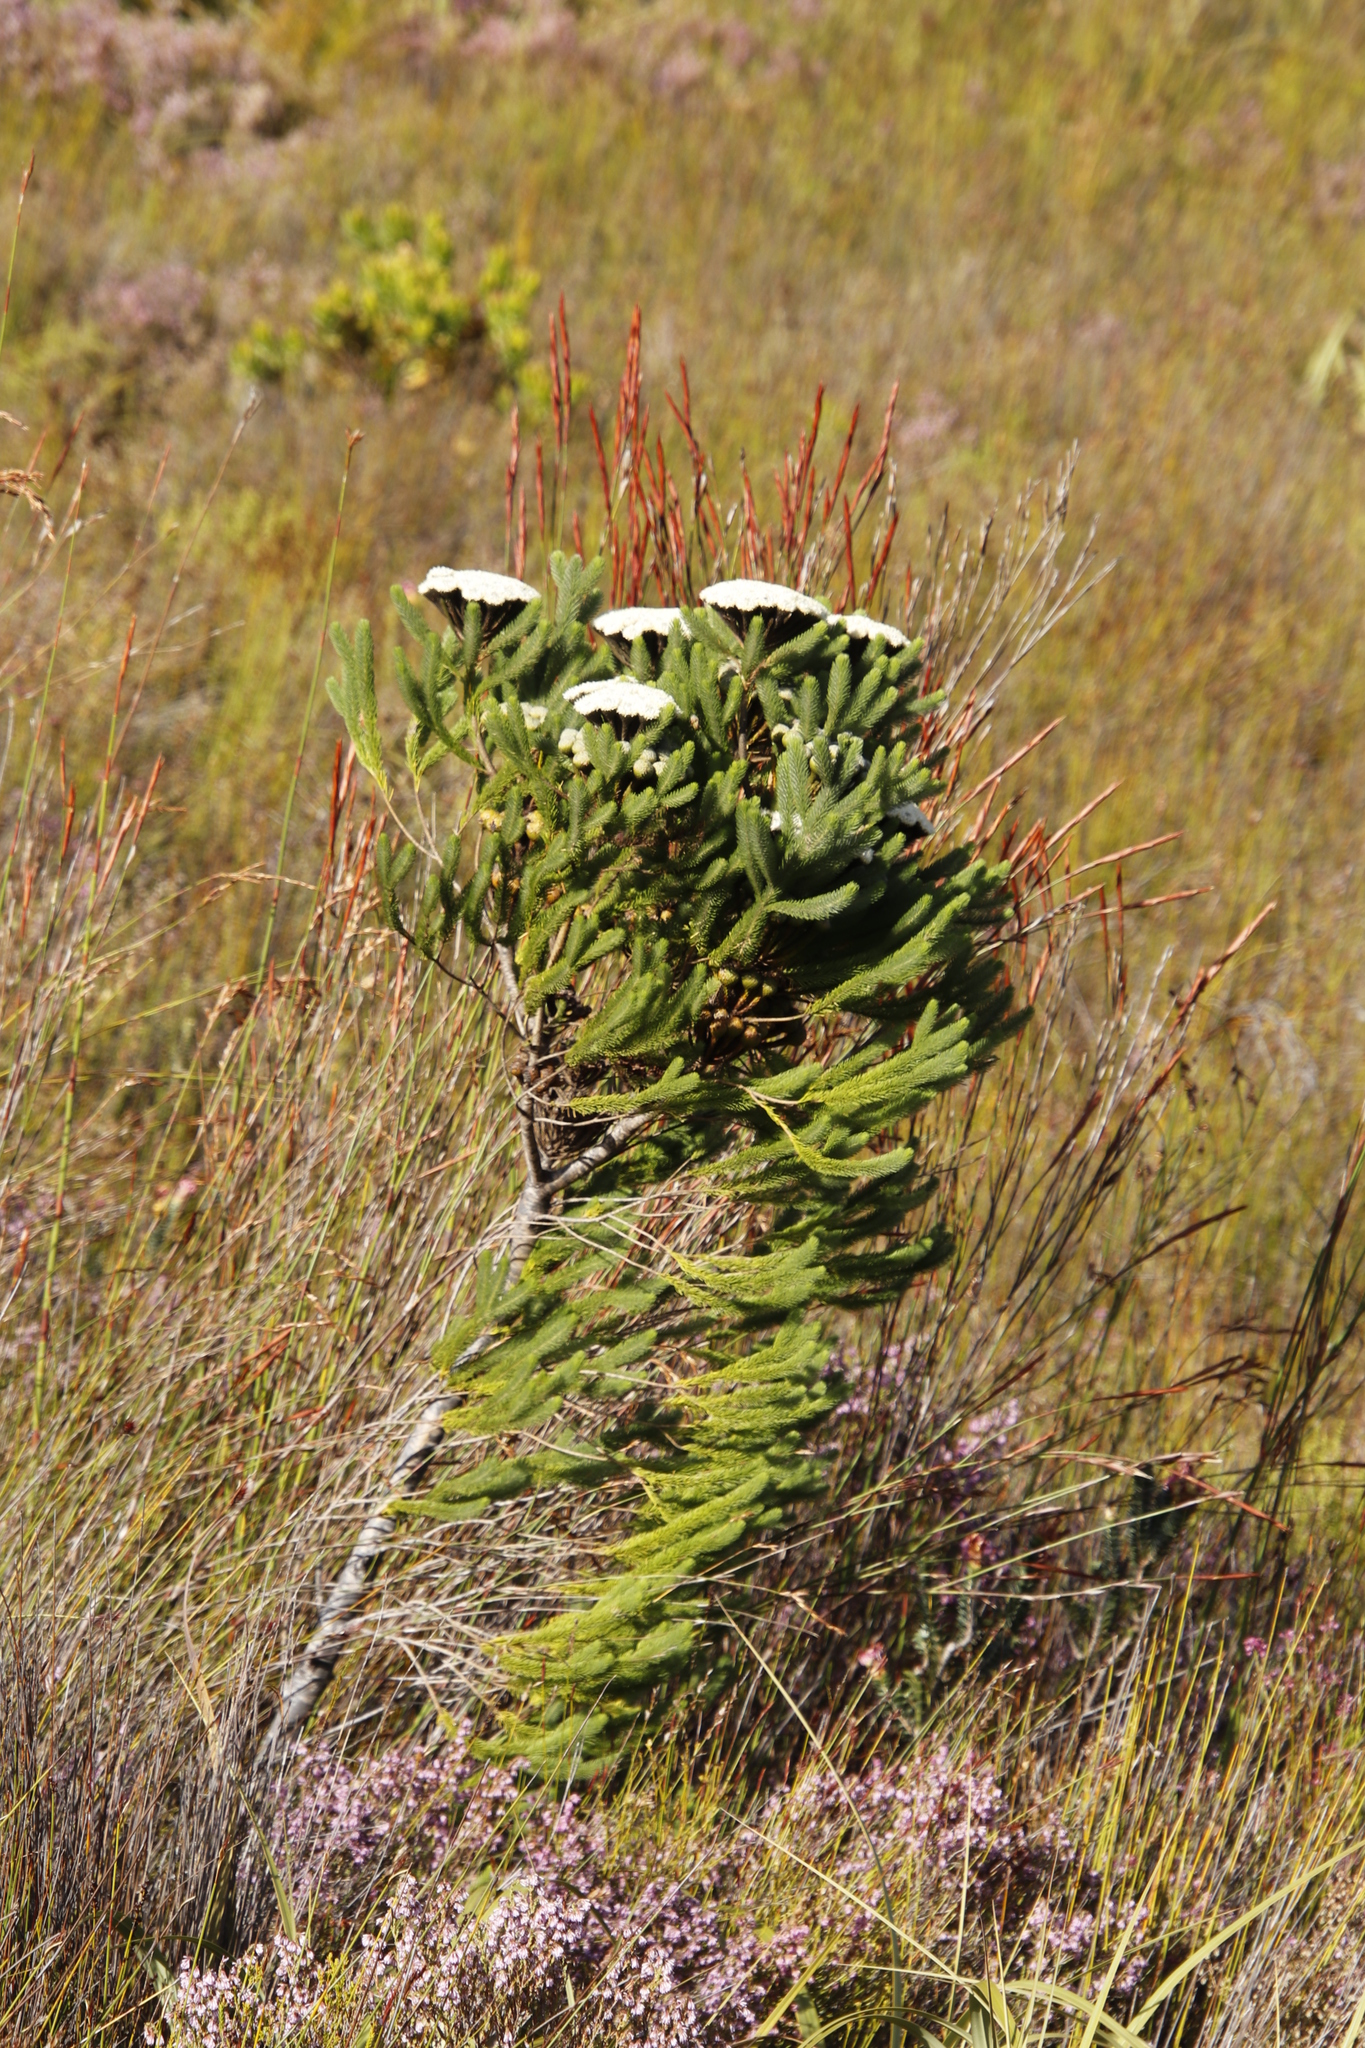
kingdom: Plantae
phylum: Tracheophyta
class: Magnoliopsida
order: Bruniales
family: Bruniaceae
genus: Berzelia
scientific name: Berzelia albiflora
